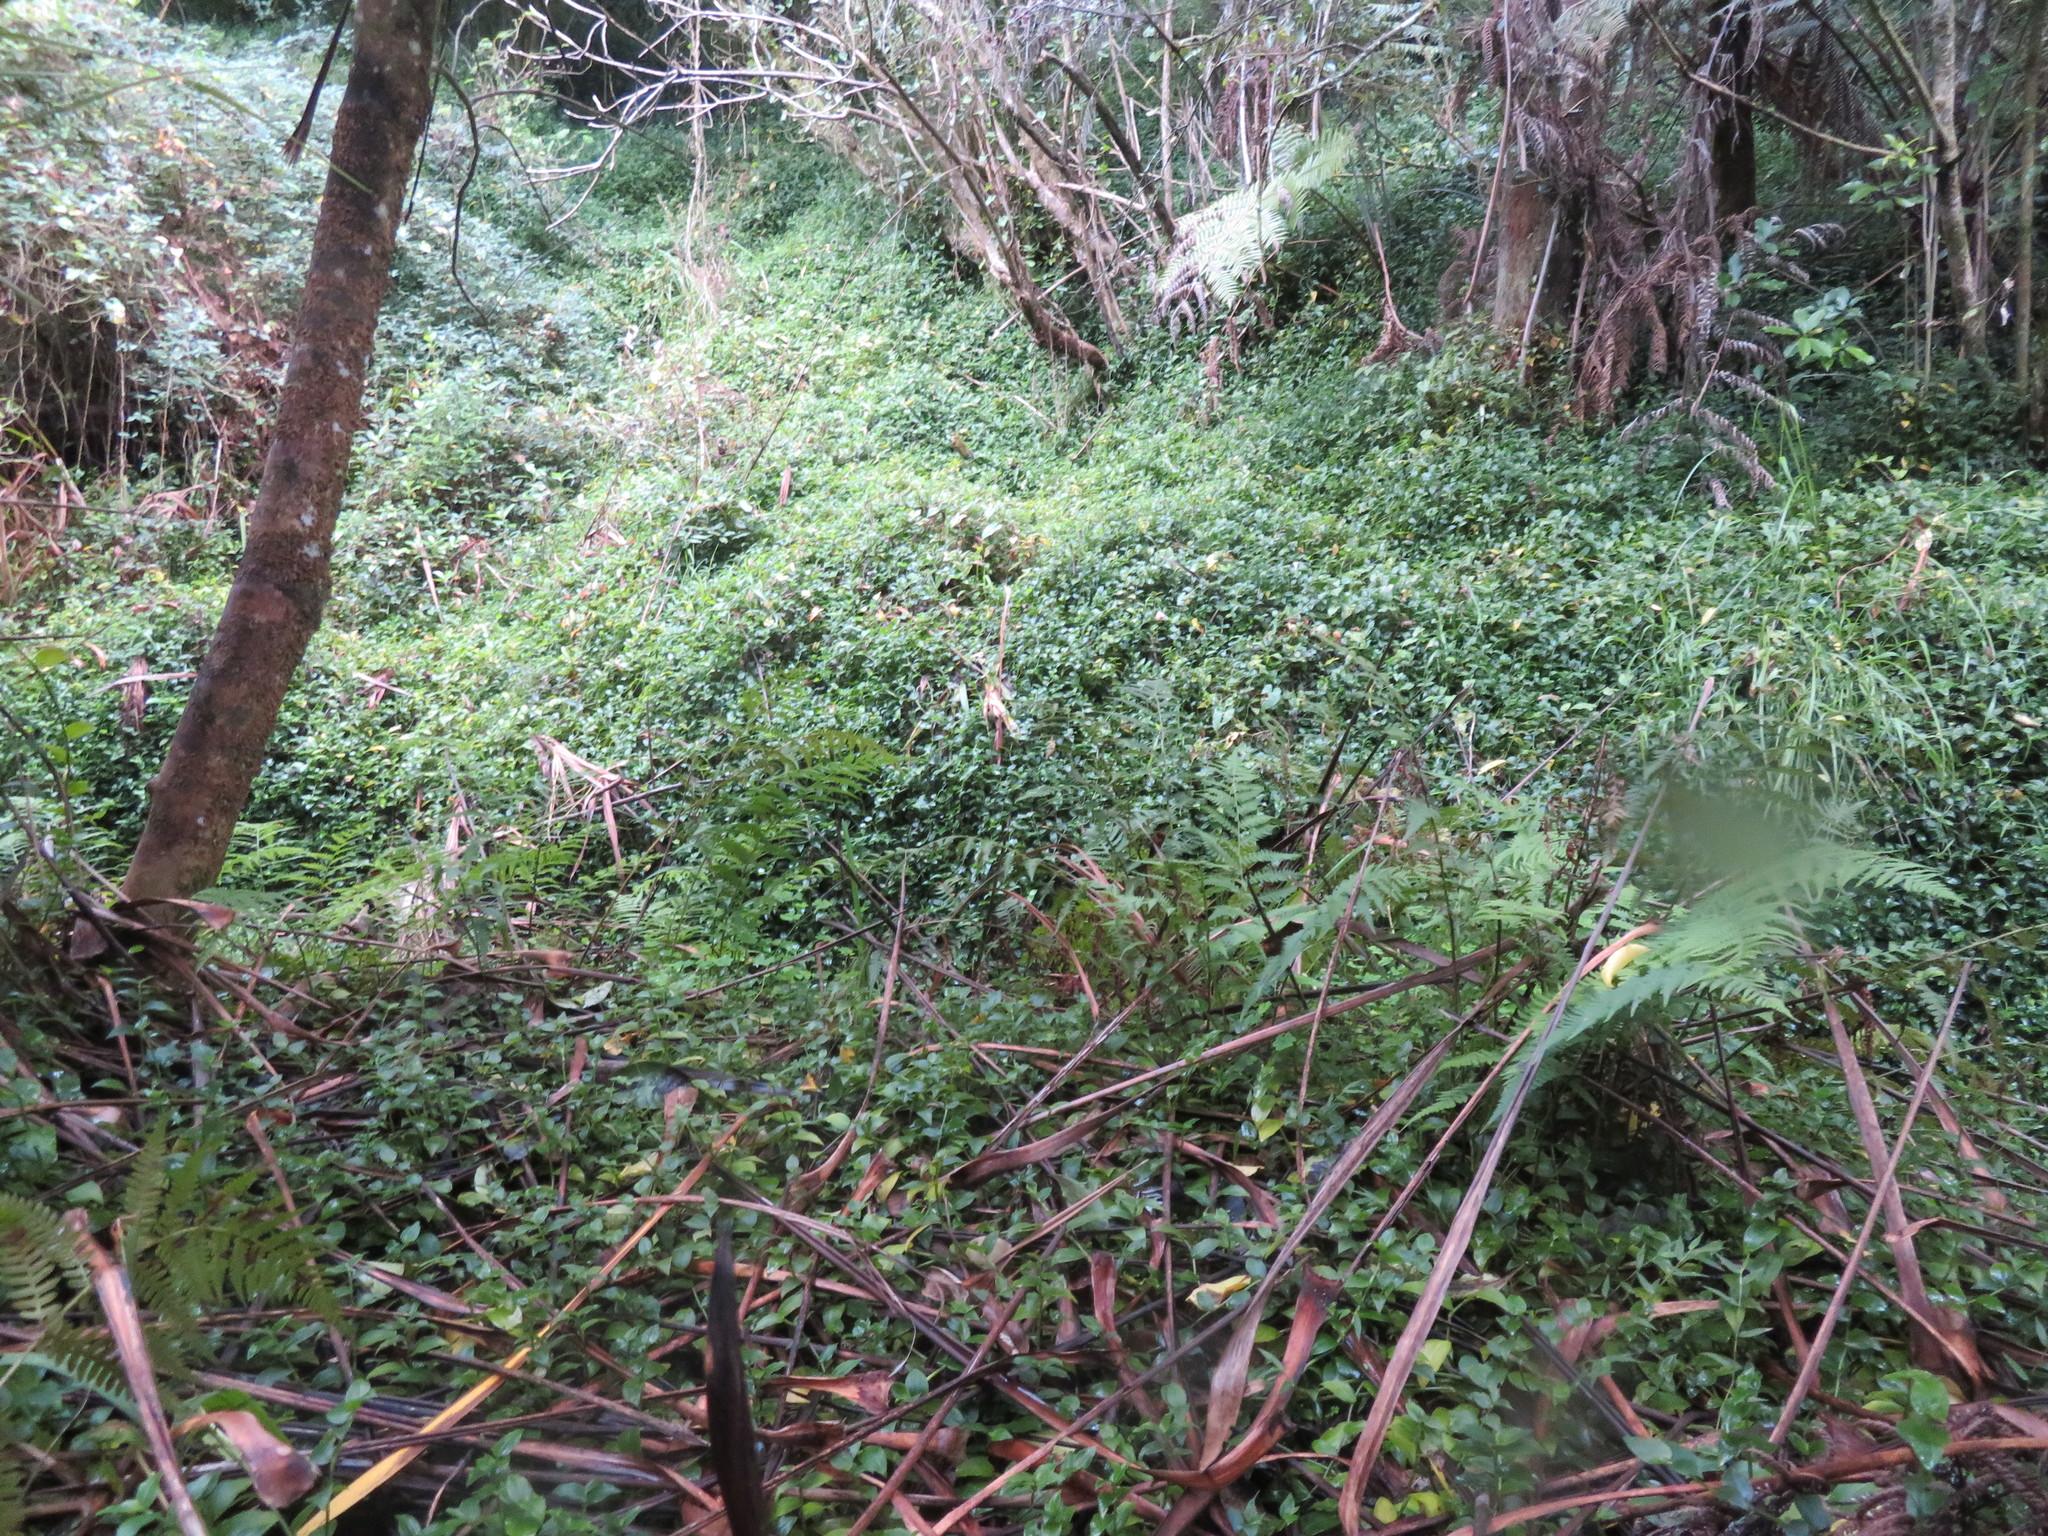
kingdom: Plantae
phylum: Tracheophyta
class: Liliopsida
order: Commelinales
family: Commelinaceae
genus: Tradescantia
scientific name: Tradescantia fluminensis
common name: Wandering-jew
